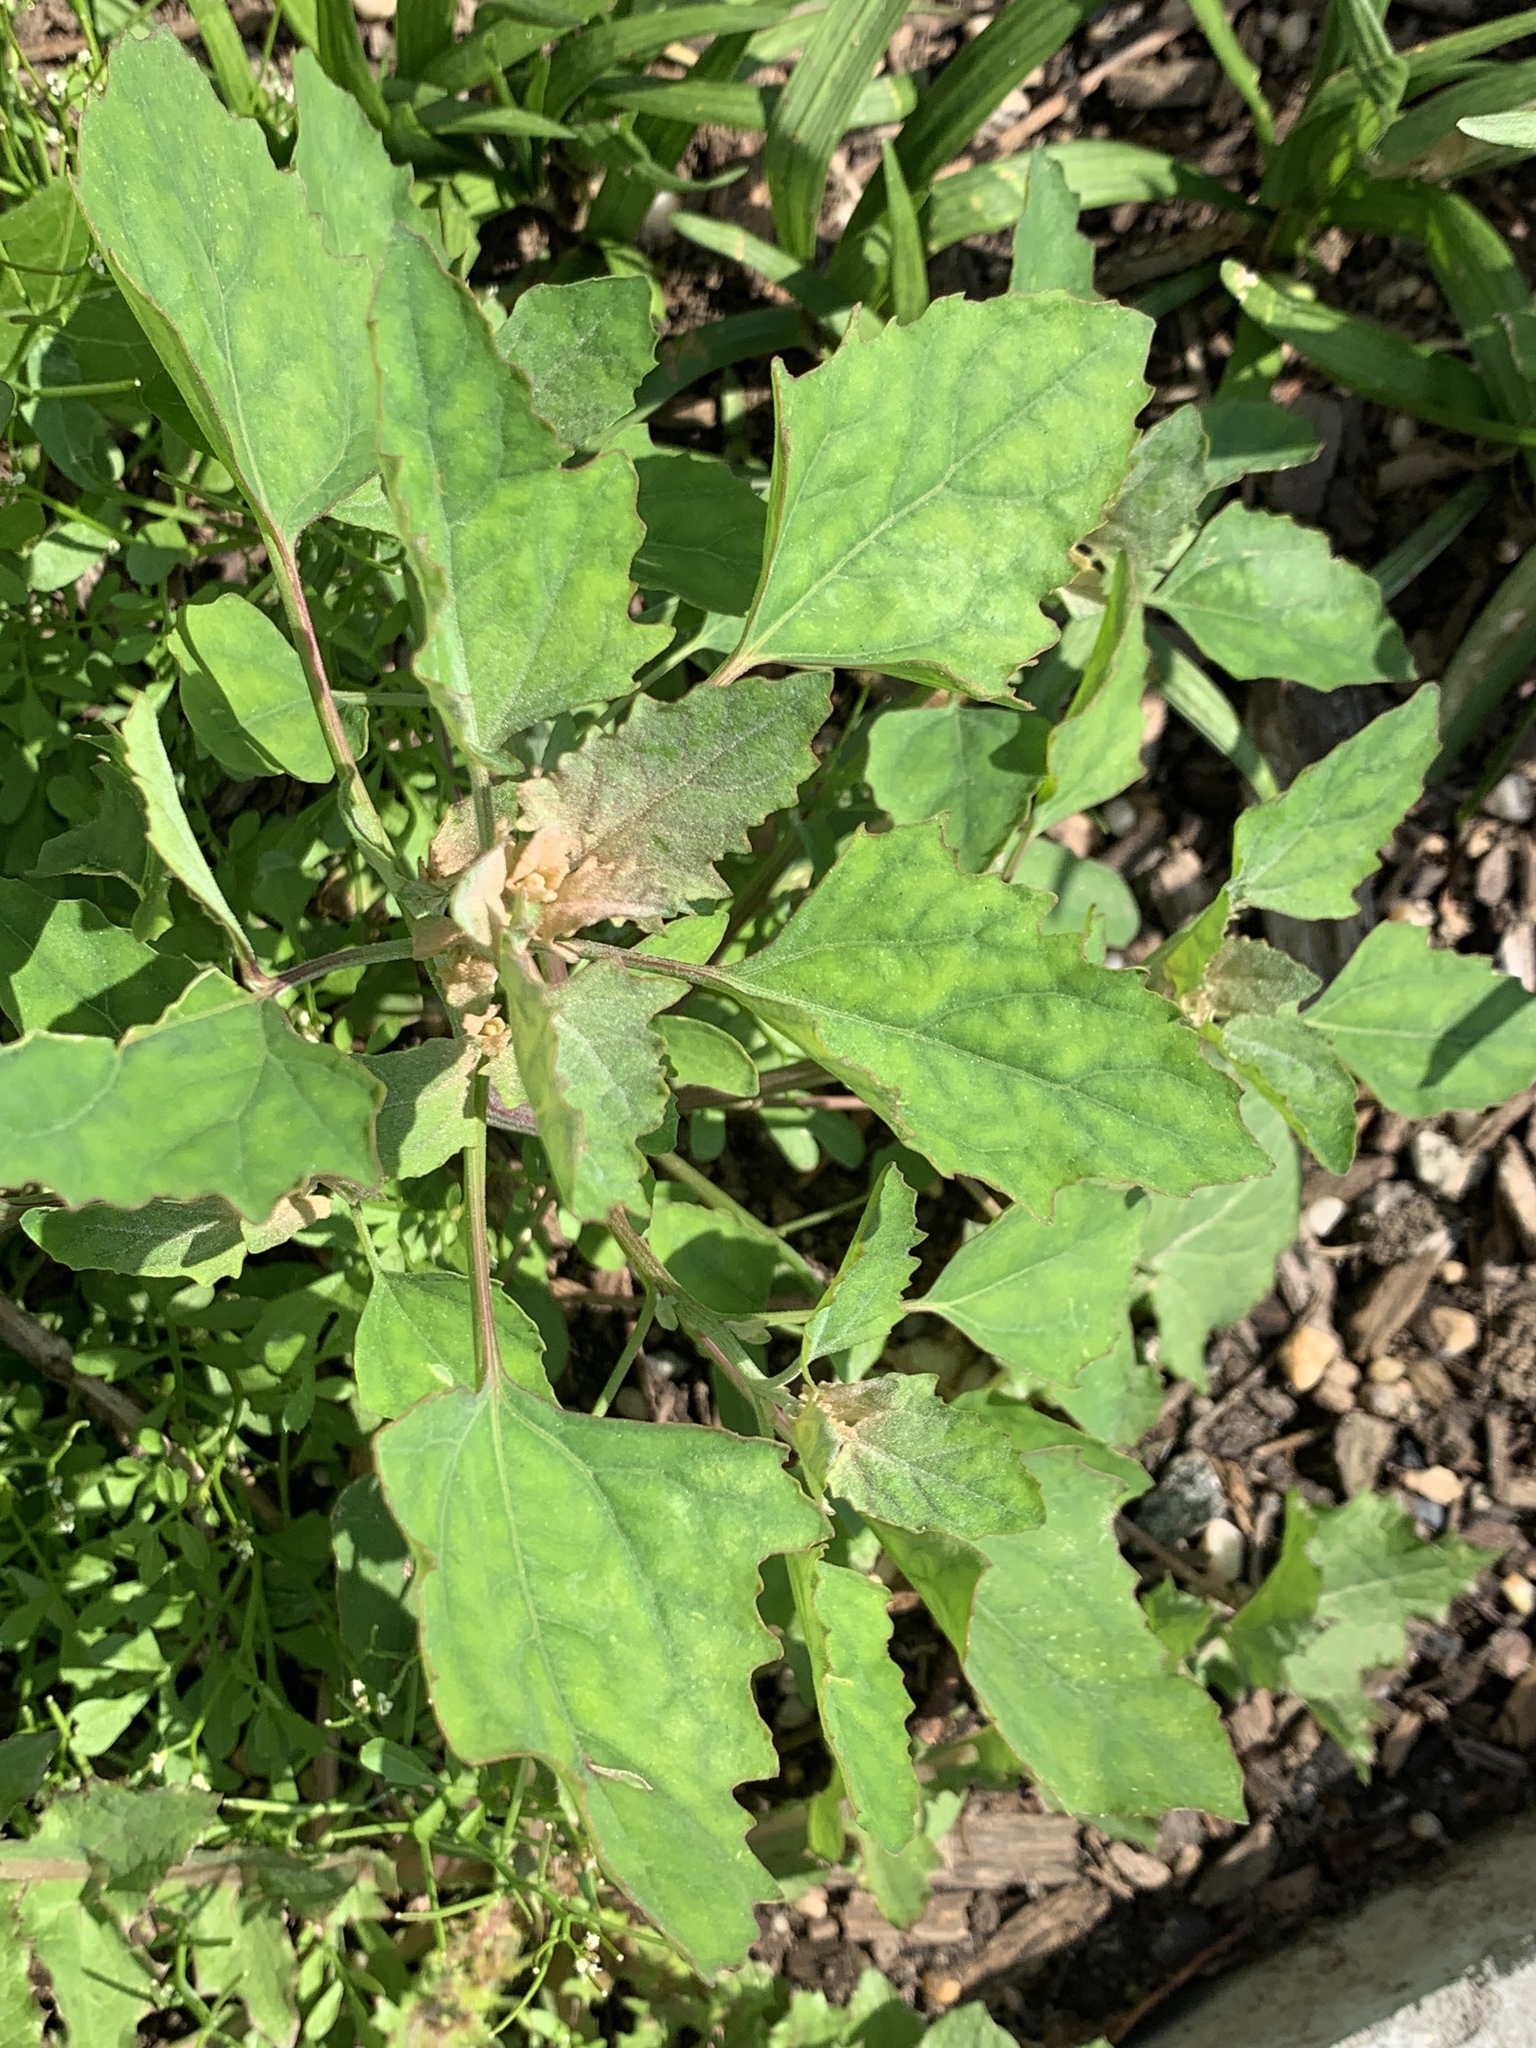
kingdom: Plantae
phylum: Tracheophyta
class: Magnoliopsida
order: Caryophyllales
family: Amaranthaceae
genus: Chenopodium
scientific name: Chenopodium album
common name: Fat-hen
